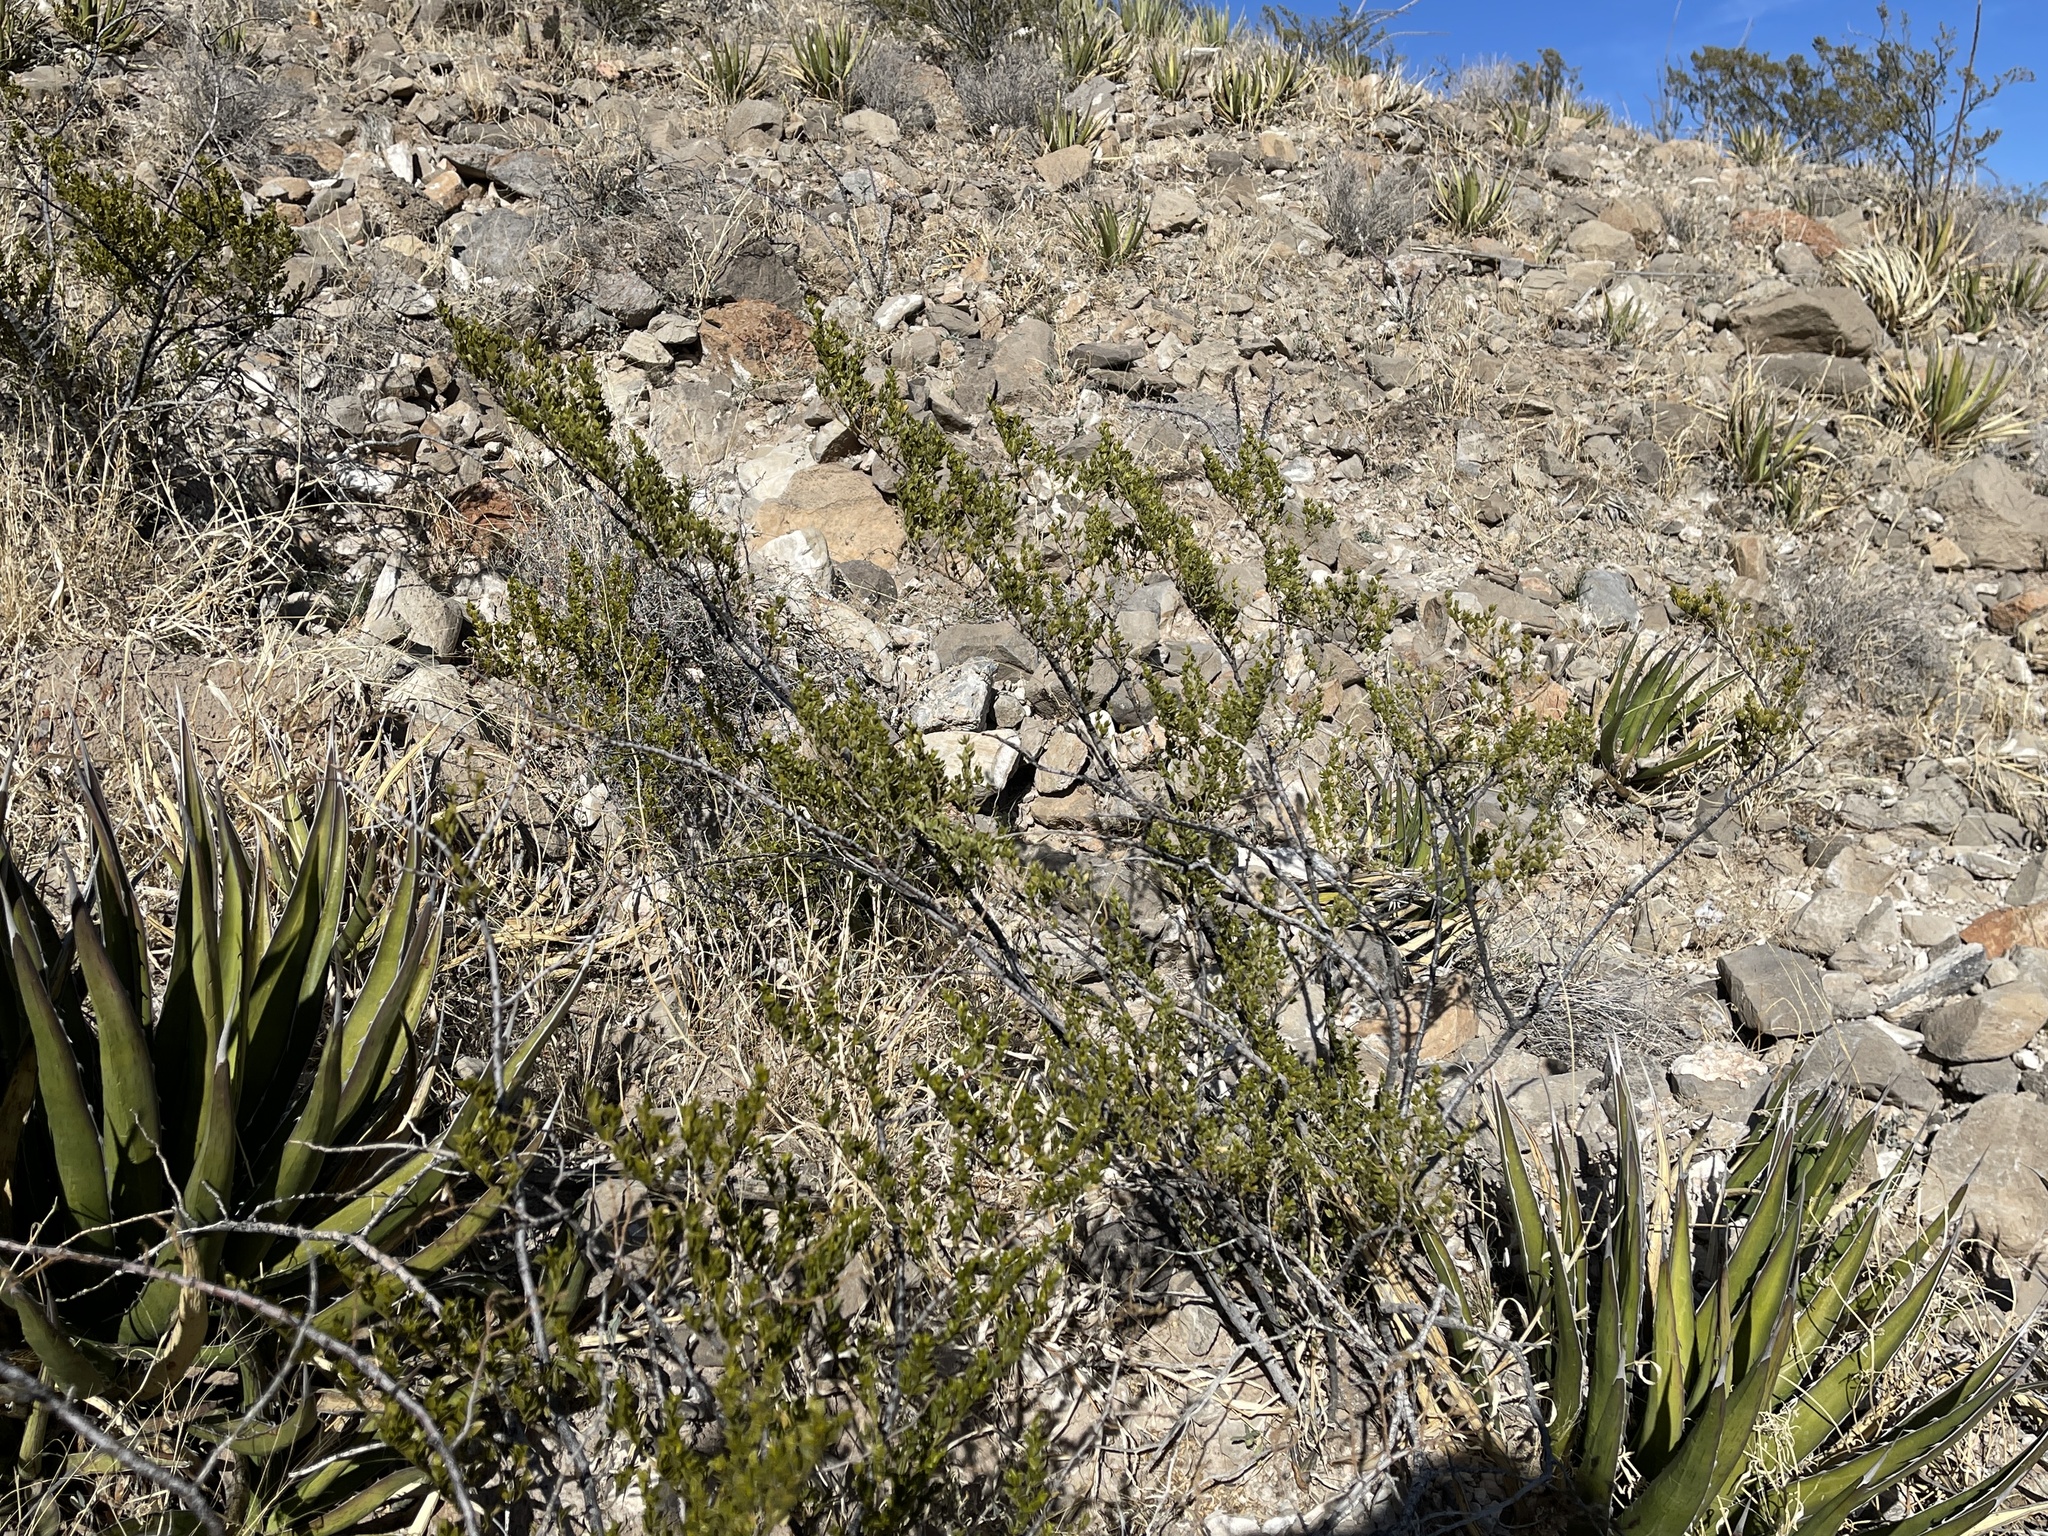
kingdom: Plantae
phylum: Tracheophyta
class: Magnoliopsida
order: Zygophyllales
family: Zygophyllaceae
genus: Larrea
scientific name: Larrea tridentata
